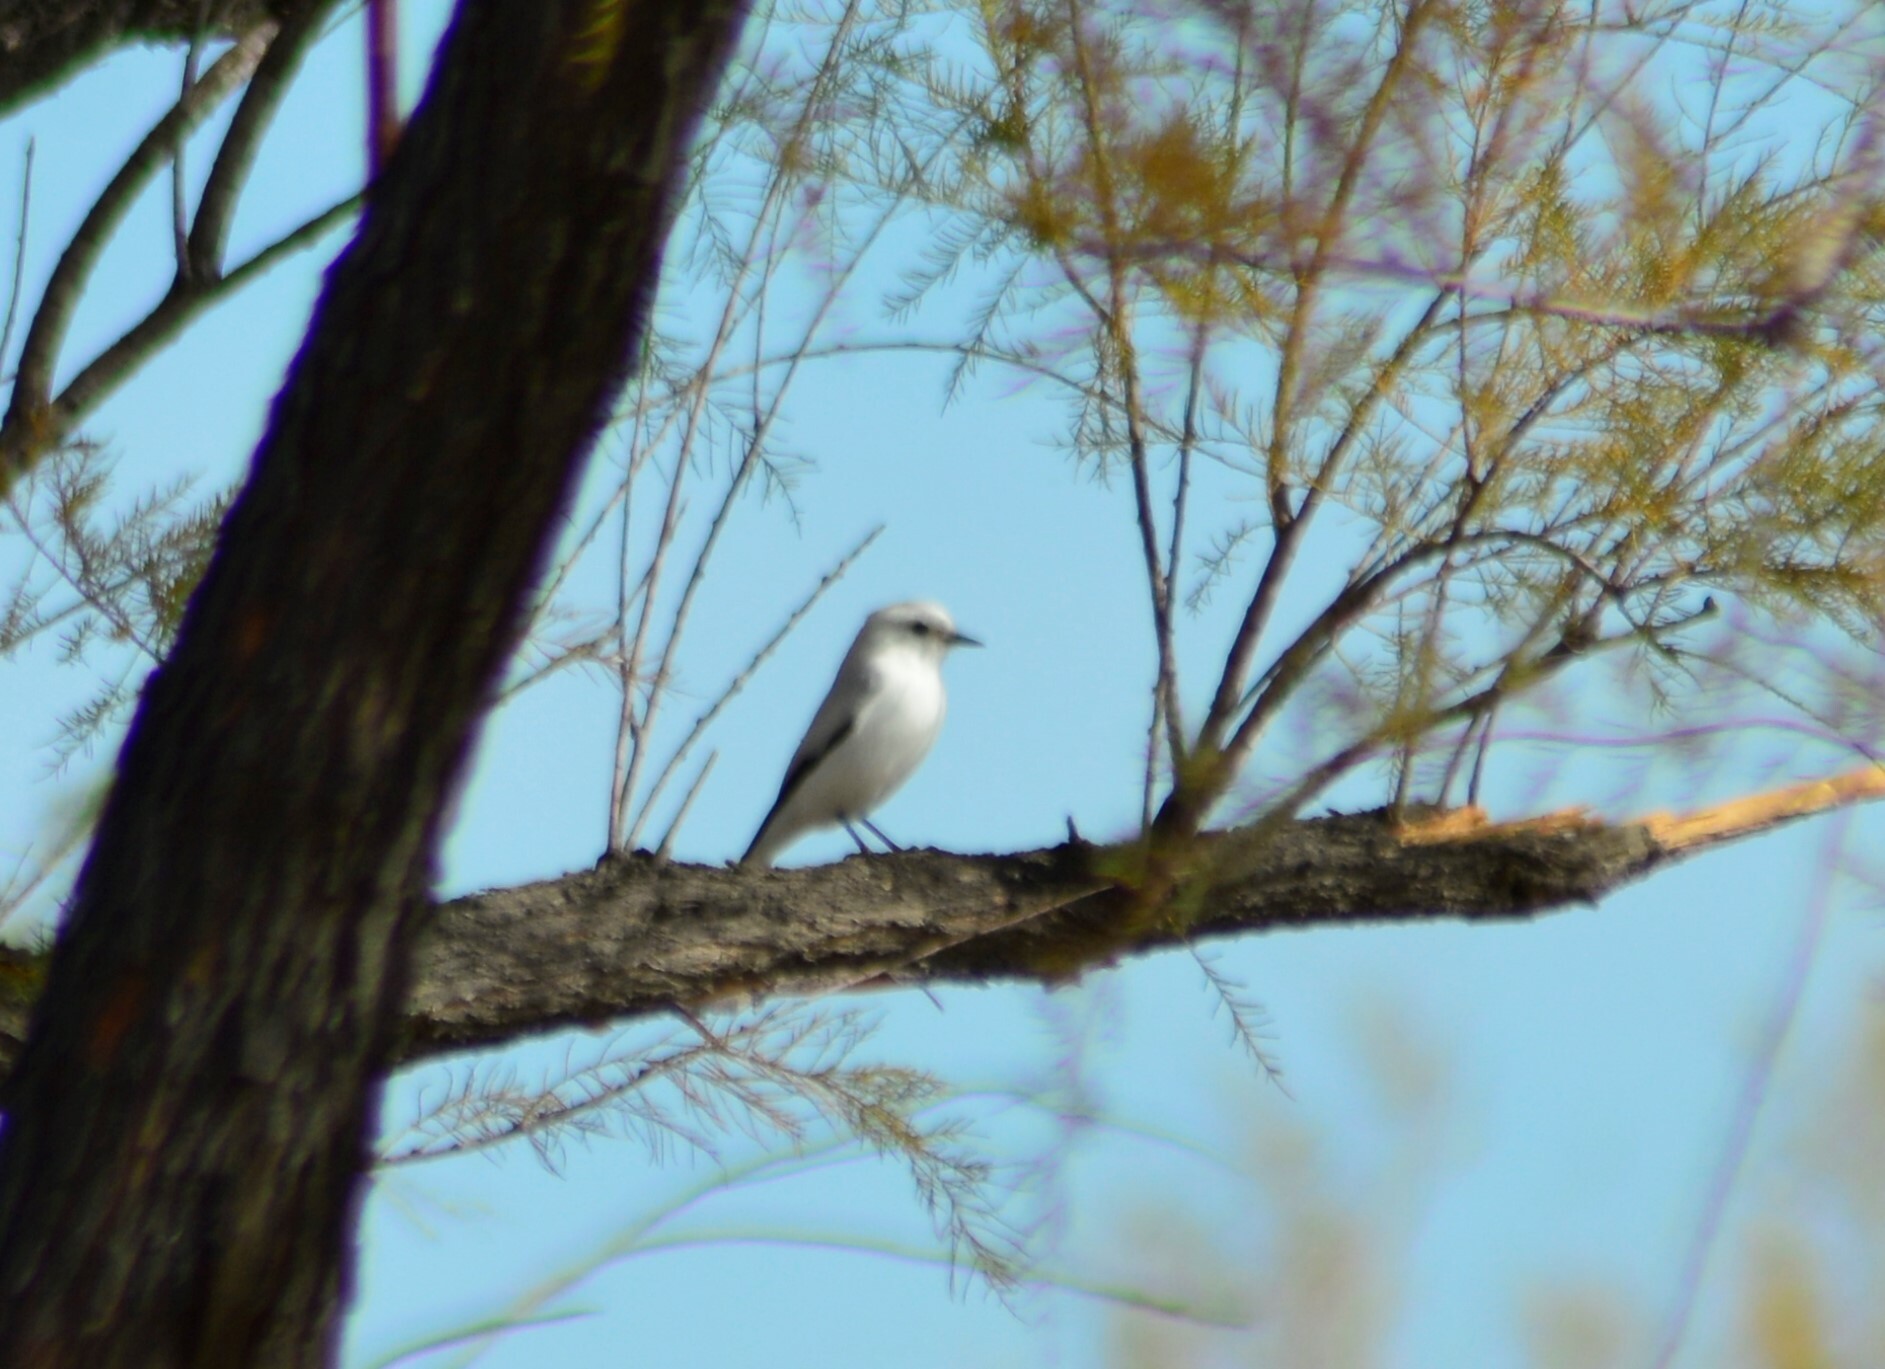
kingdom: Animalia
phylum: Chordata
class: Aves
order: Passeriformes
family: Tyrannidae
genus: Xolmis
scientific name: Xolmis irupero
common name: White monjita
